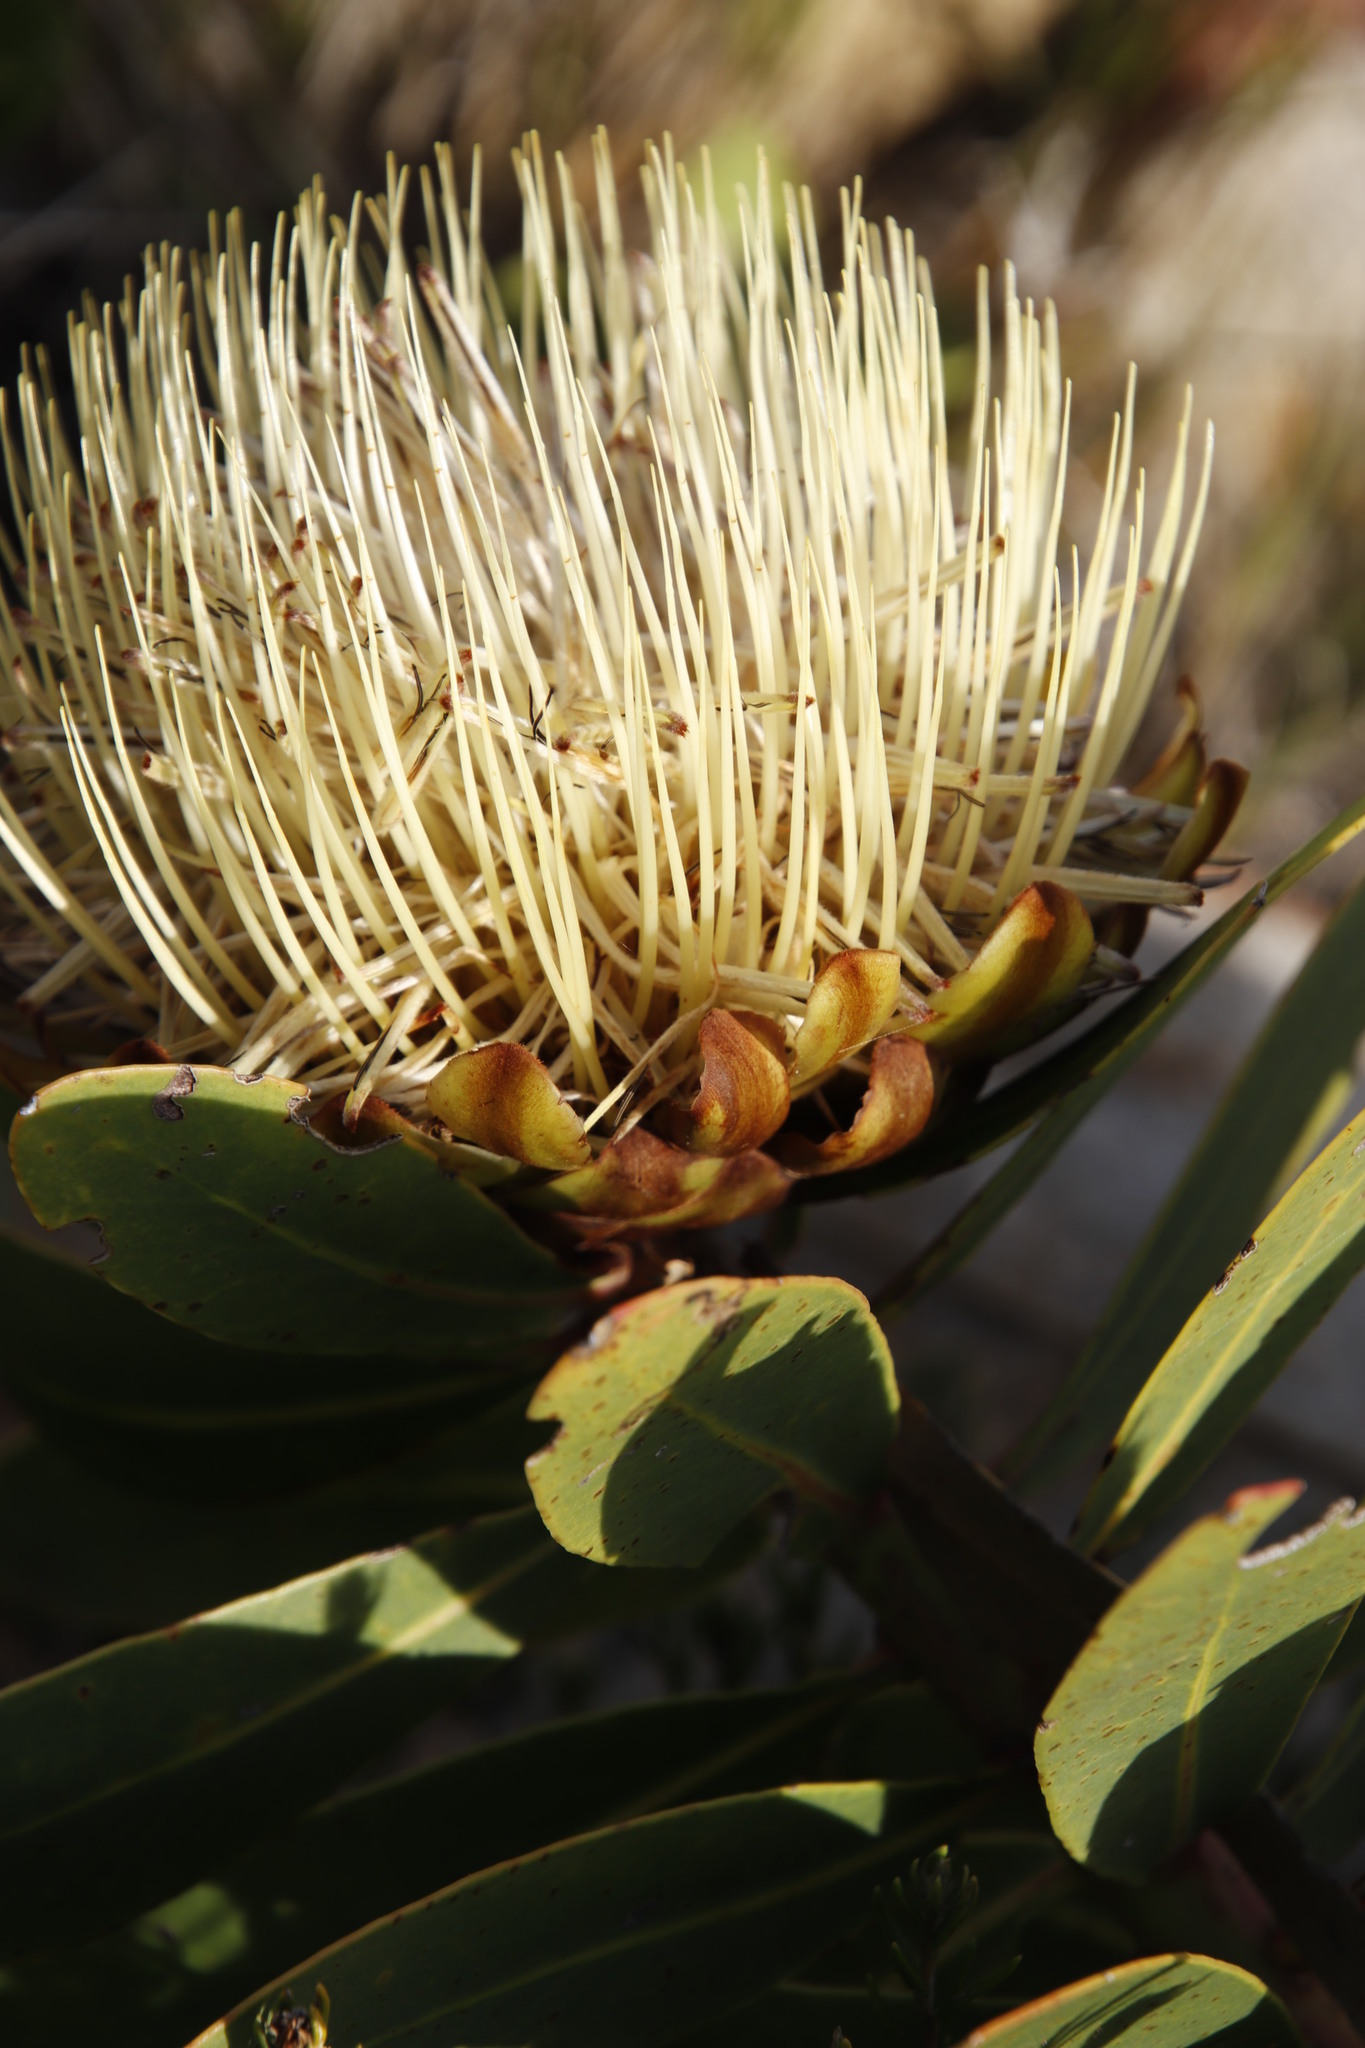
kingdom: Plantae
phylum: Tracheophyta
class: Magnoliopsida
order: Proteales
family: Proteaceae
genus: Protea
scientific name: Protea nitida
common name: Tree protea
